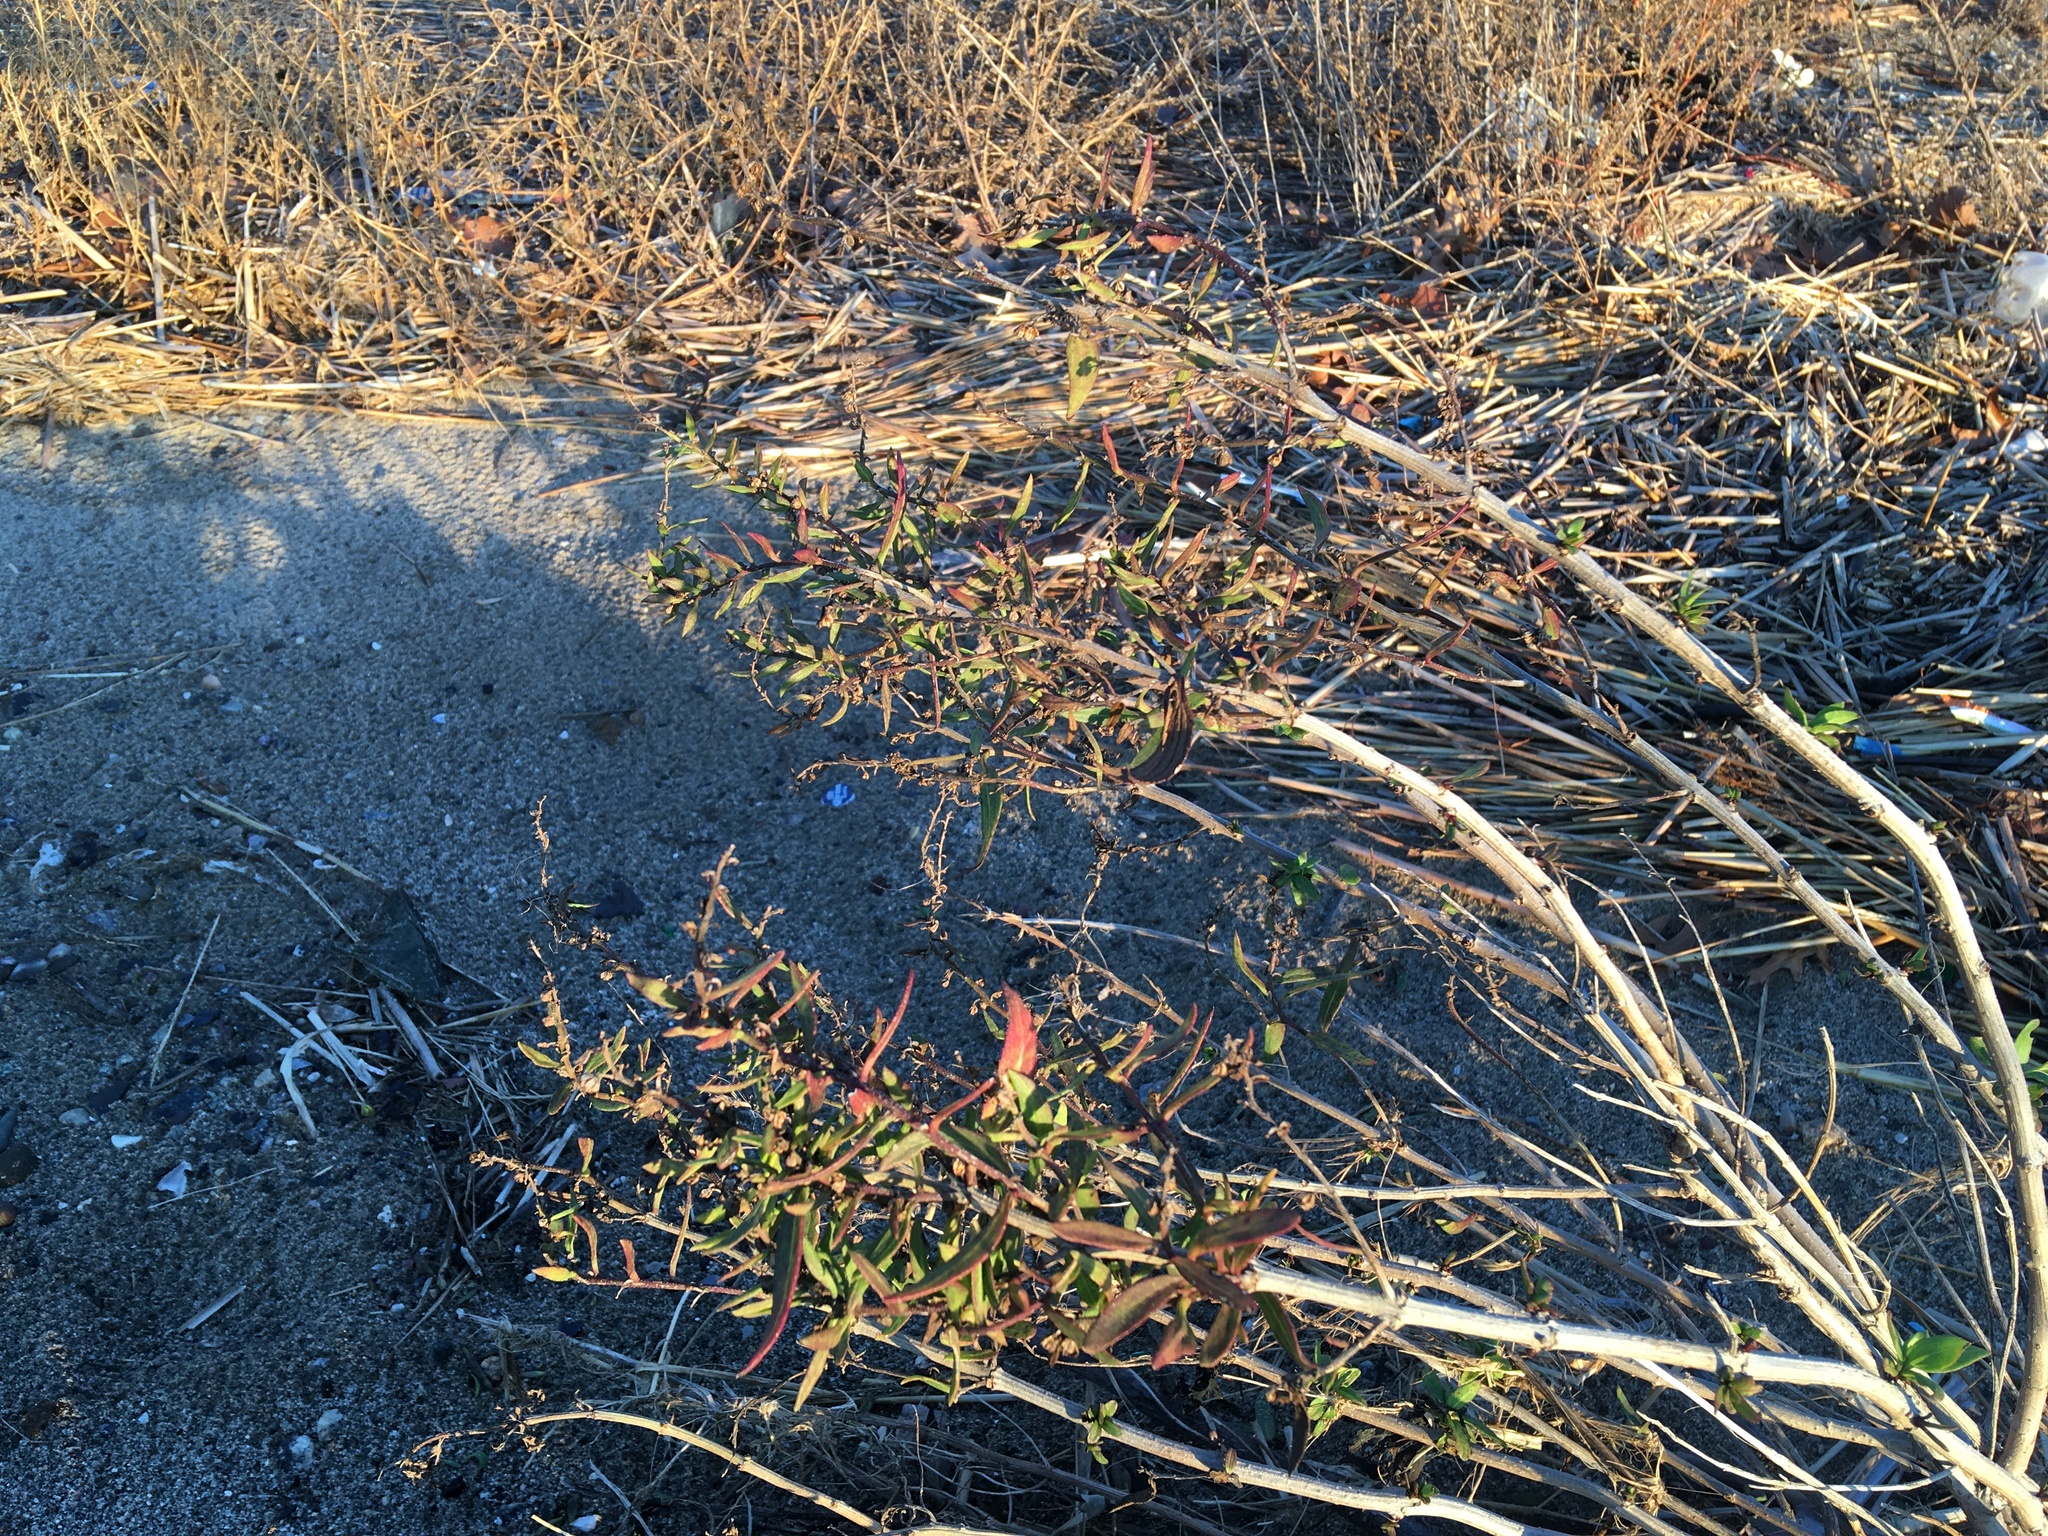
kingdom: Plantae
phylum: Tracheophyta
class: Magnoliopsida
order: Asterales
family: Asteraceae
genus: Iva
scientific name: Iva frutescens
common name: Big-leaved marsh-elder
